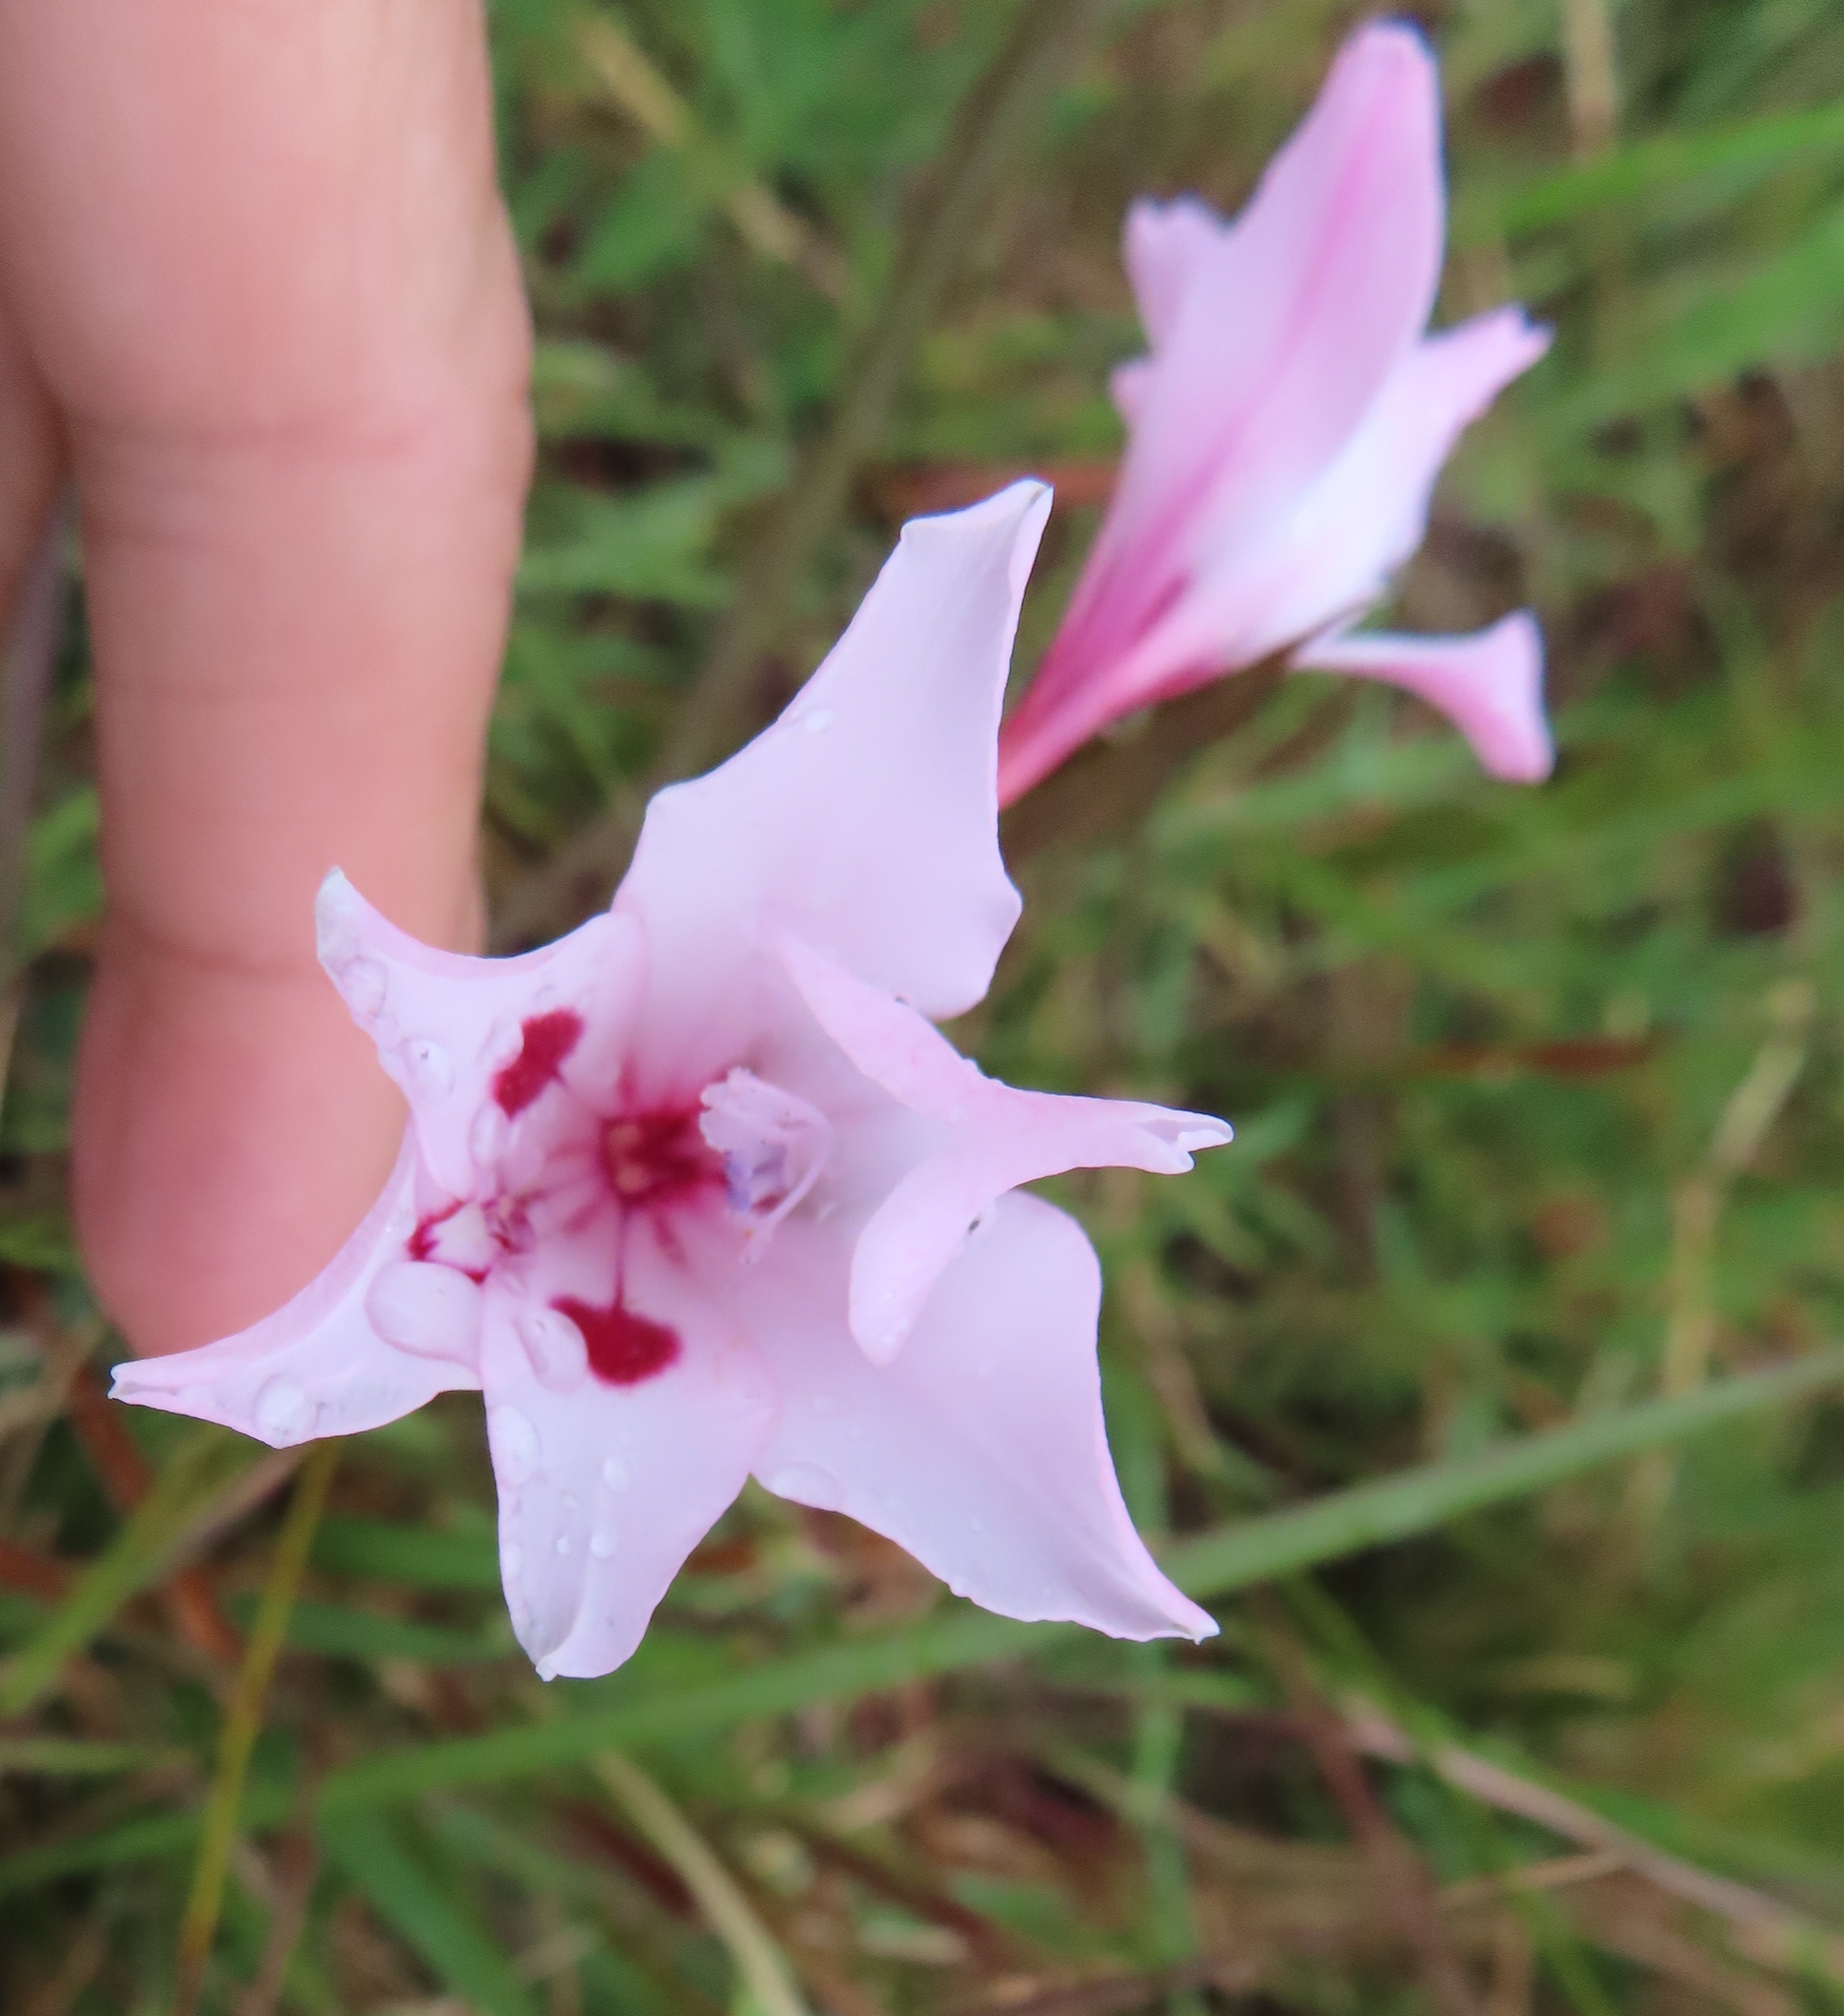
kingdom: Plantae
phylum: Tracheophyta
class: Liliopsida
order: Asparagales
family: Iridaceae
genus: Gladiolus
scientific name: Gladiolus carneus
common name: Painted-lady
